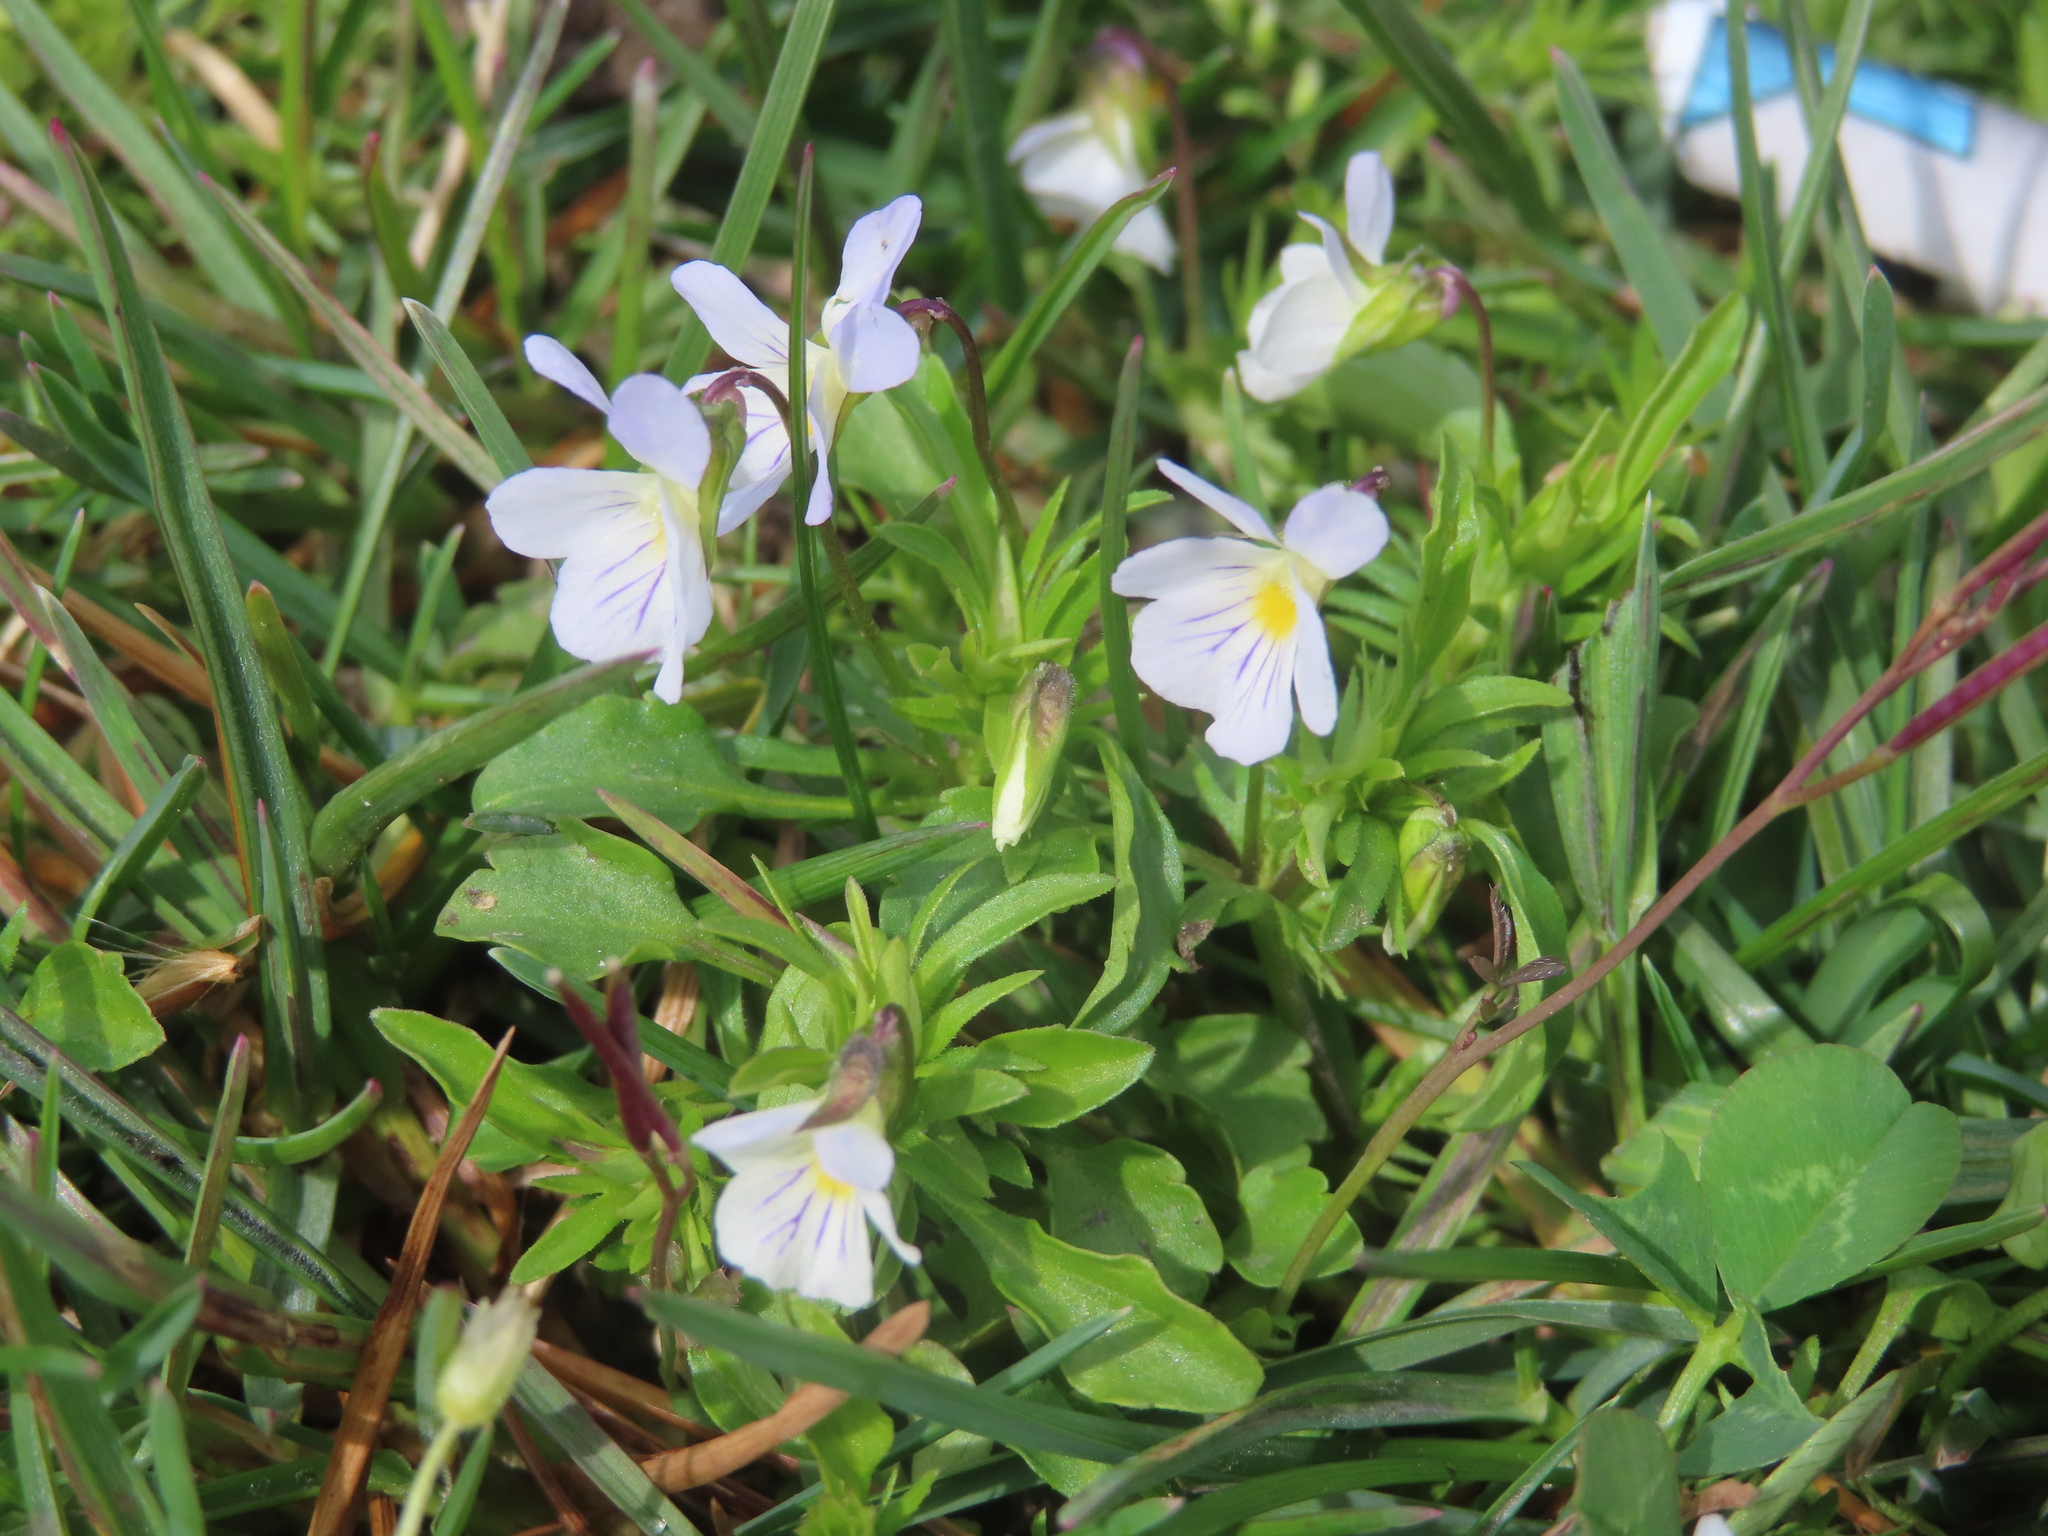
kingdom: Plantae
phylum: Tracheophyta
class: Magnoliopsida
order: Malpighiales
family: Violaceae
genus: Viola
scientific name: Viola rafinesquei
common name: American field pansy
